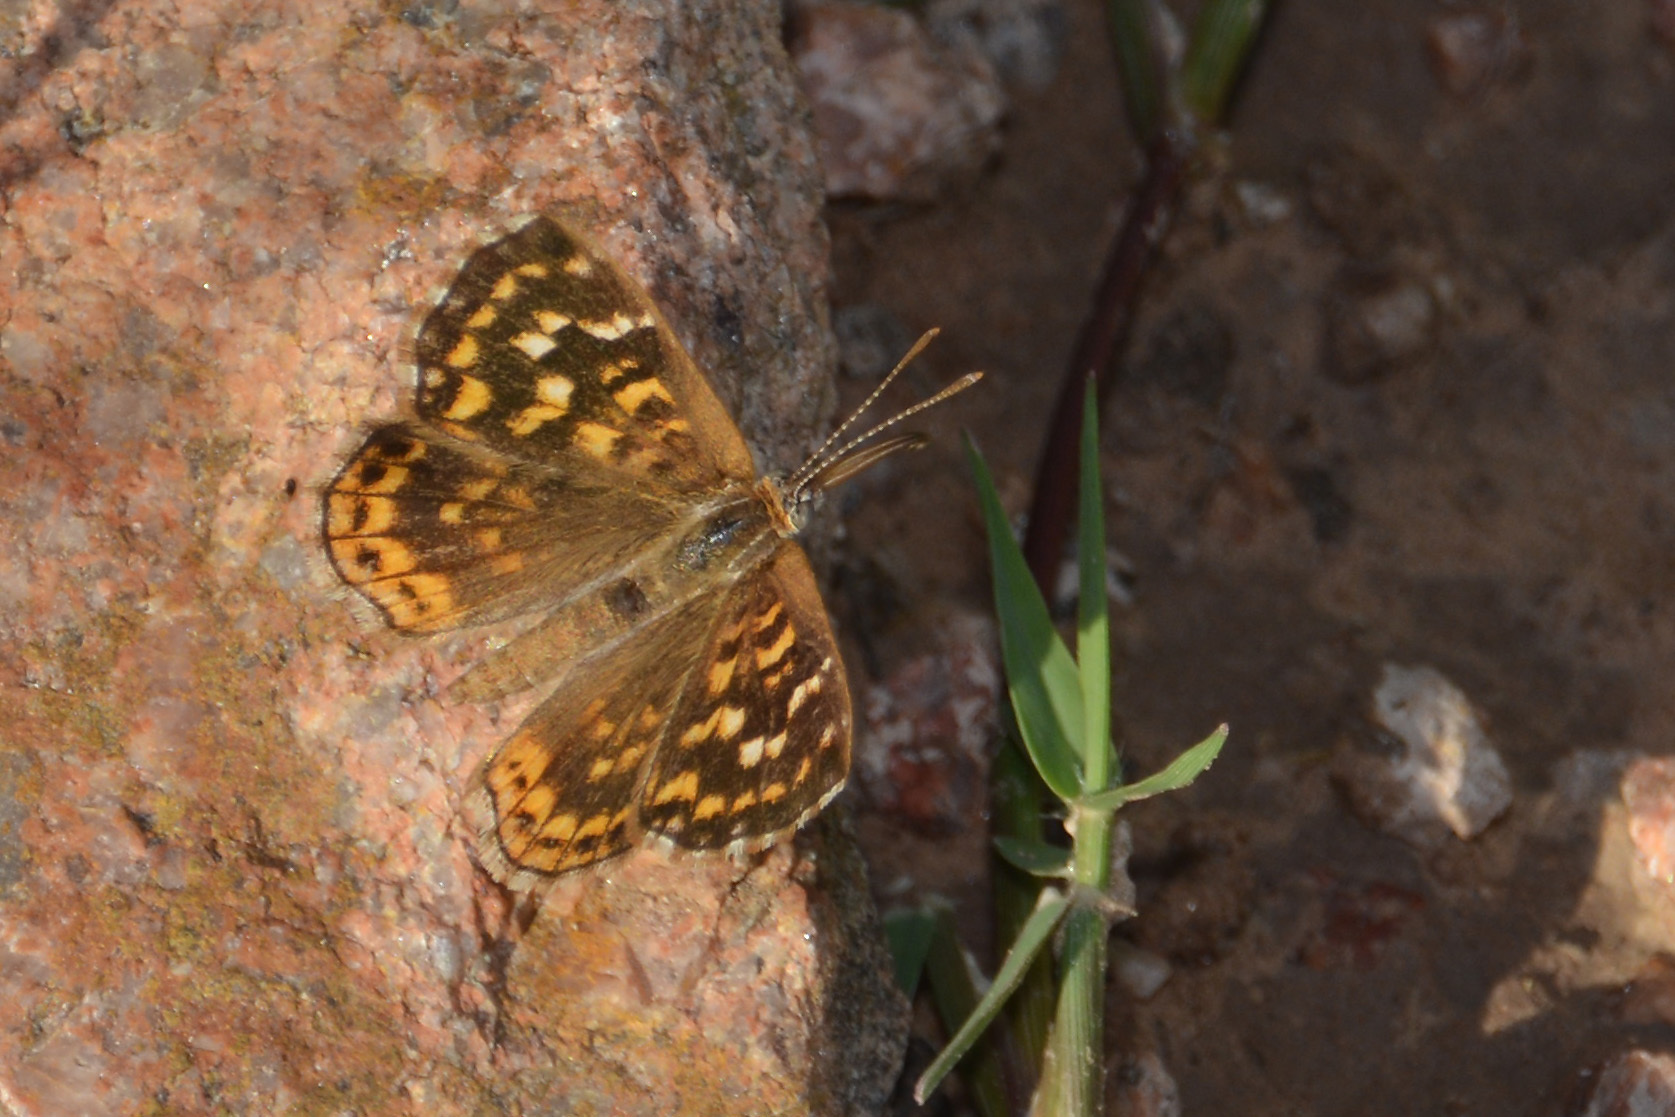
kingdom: Animalia
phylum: Arthropoda
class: Insecta
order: Lepidoptera
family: Lycaenidae
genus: Aricoris
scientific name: Aricoris indistincta
